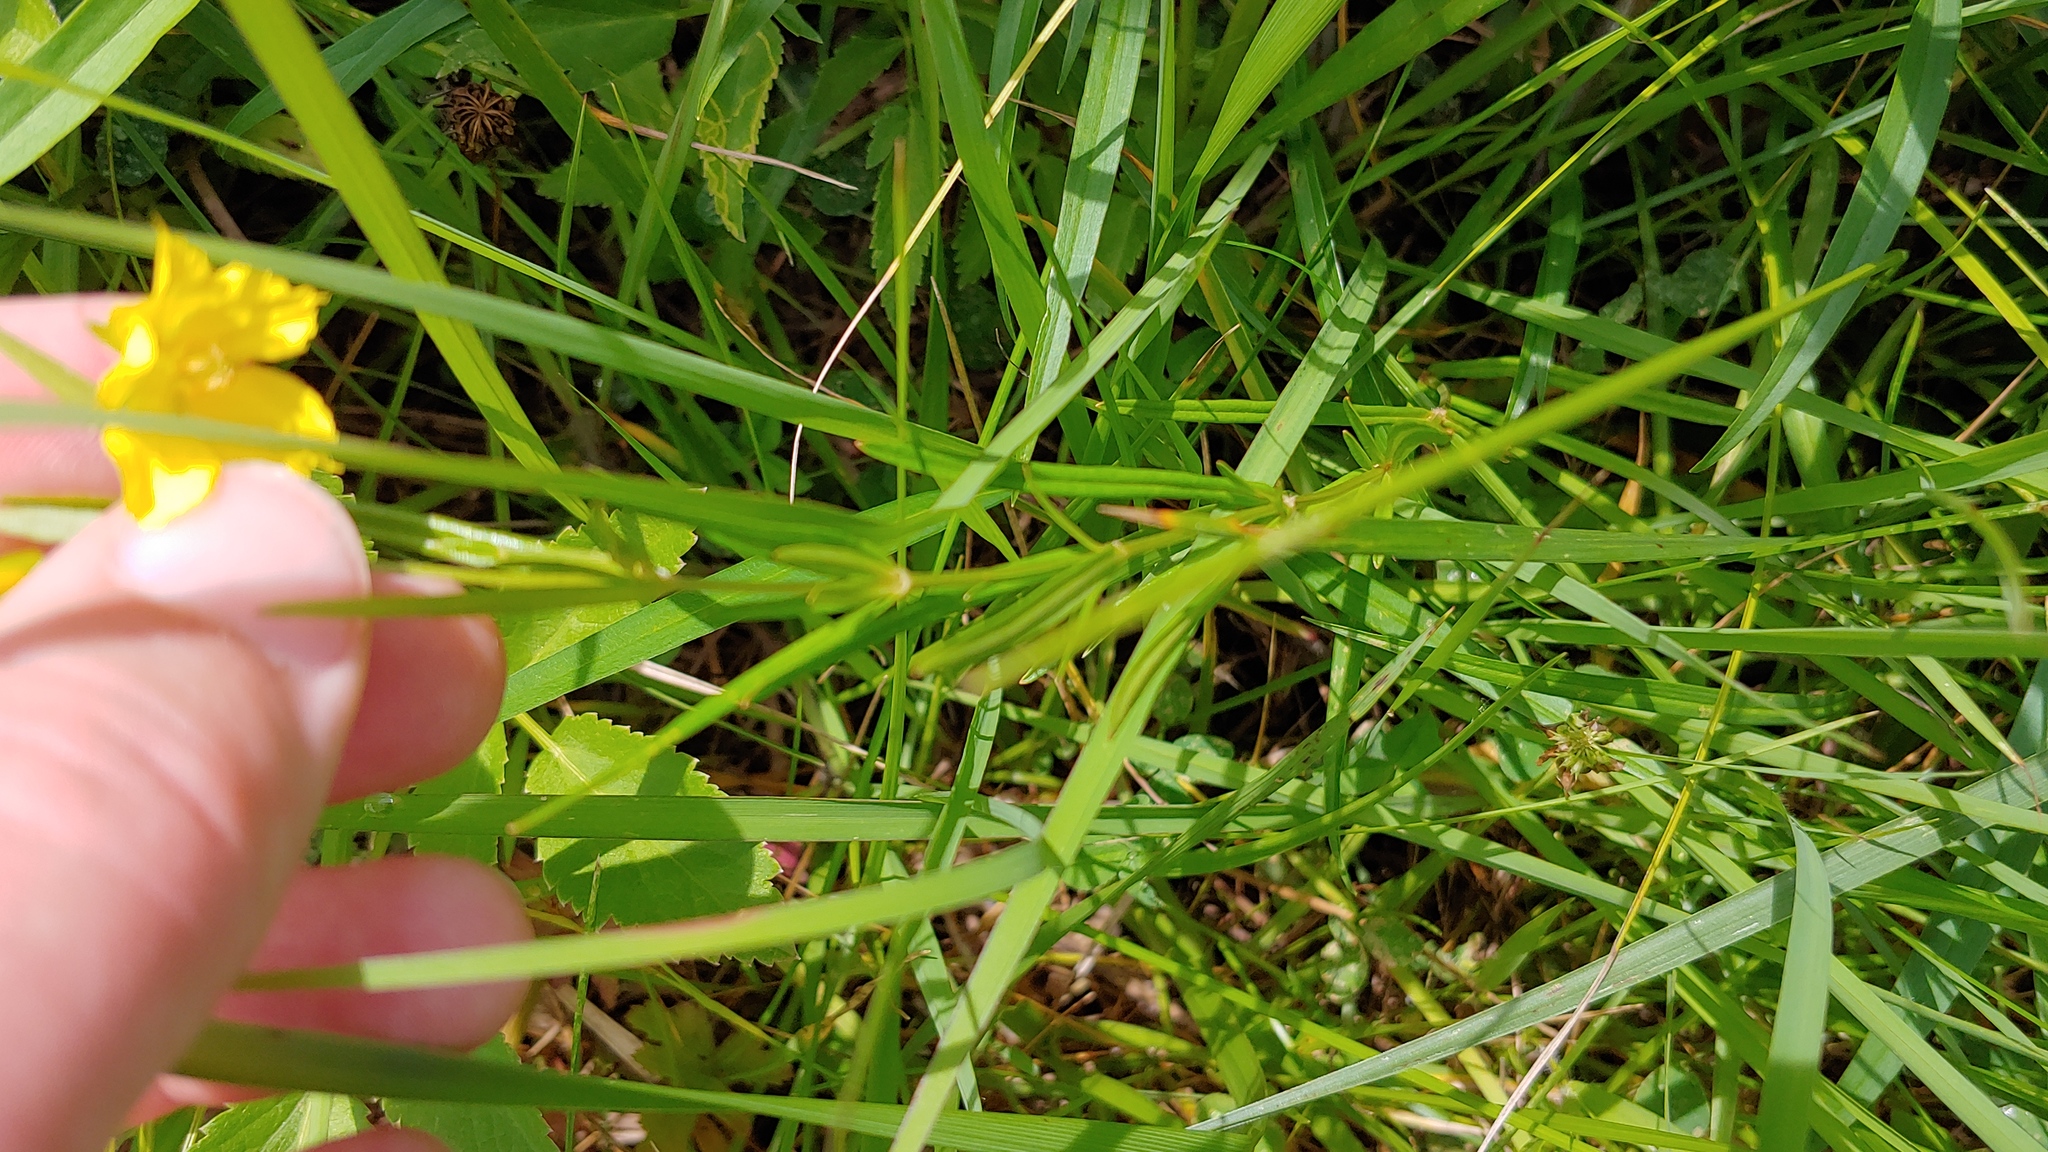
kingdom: Plantae
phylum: Tracheophyta
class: Magnoliopsida
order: Ericales
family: Primulaceae
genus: Lysimachia
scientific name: Lysimachia quadriflora
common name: Four-flowered loosestrife
